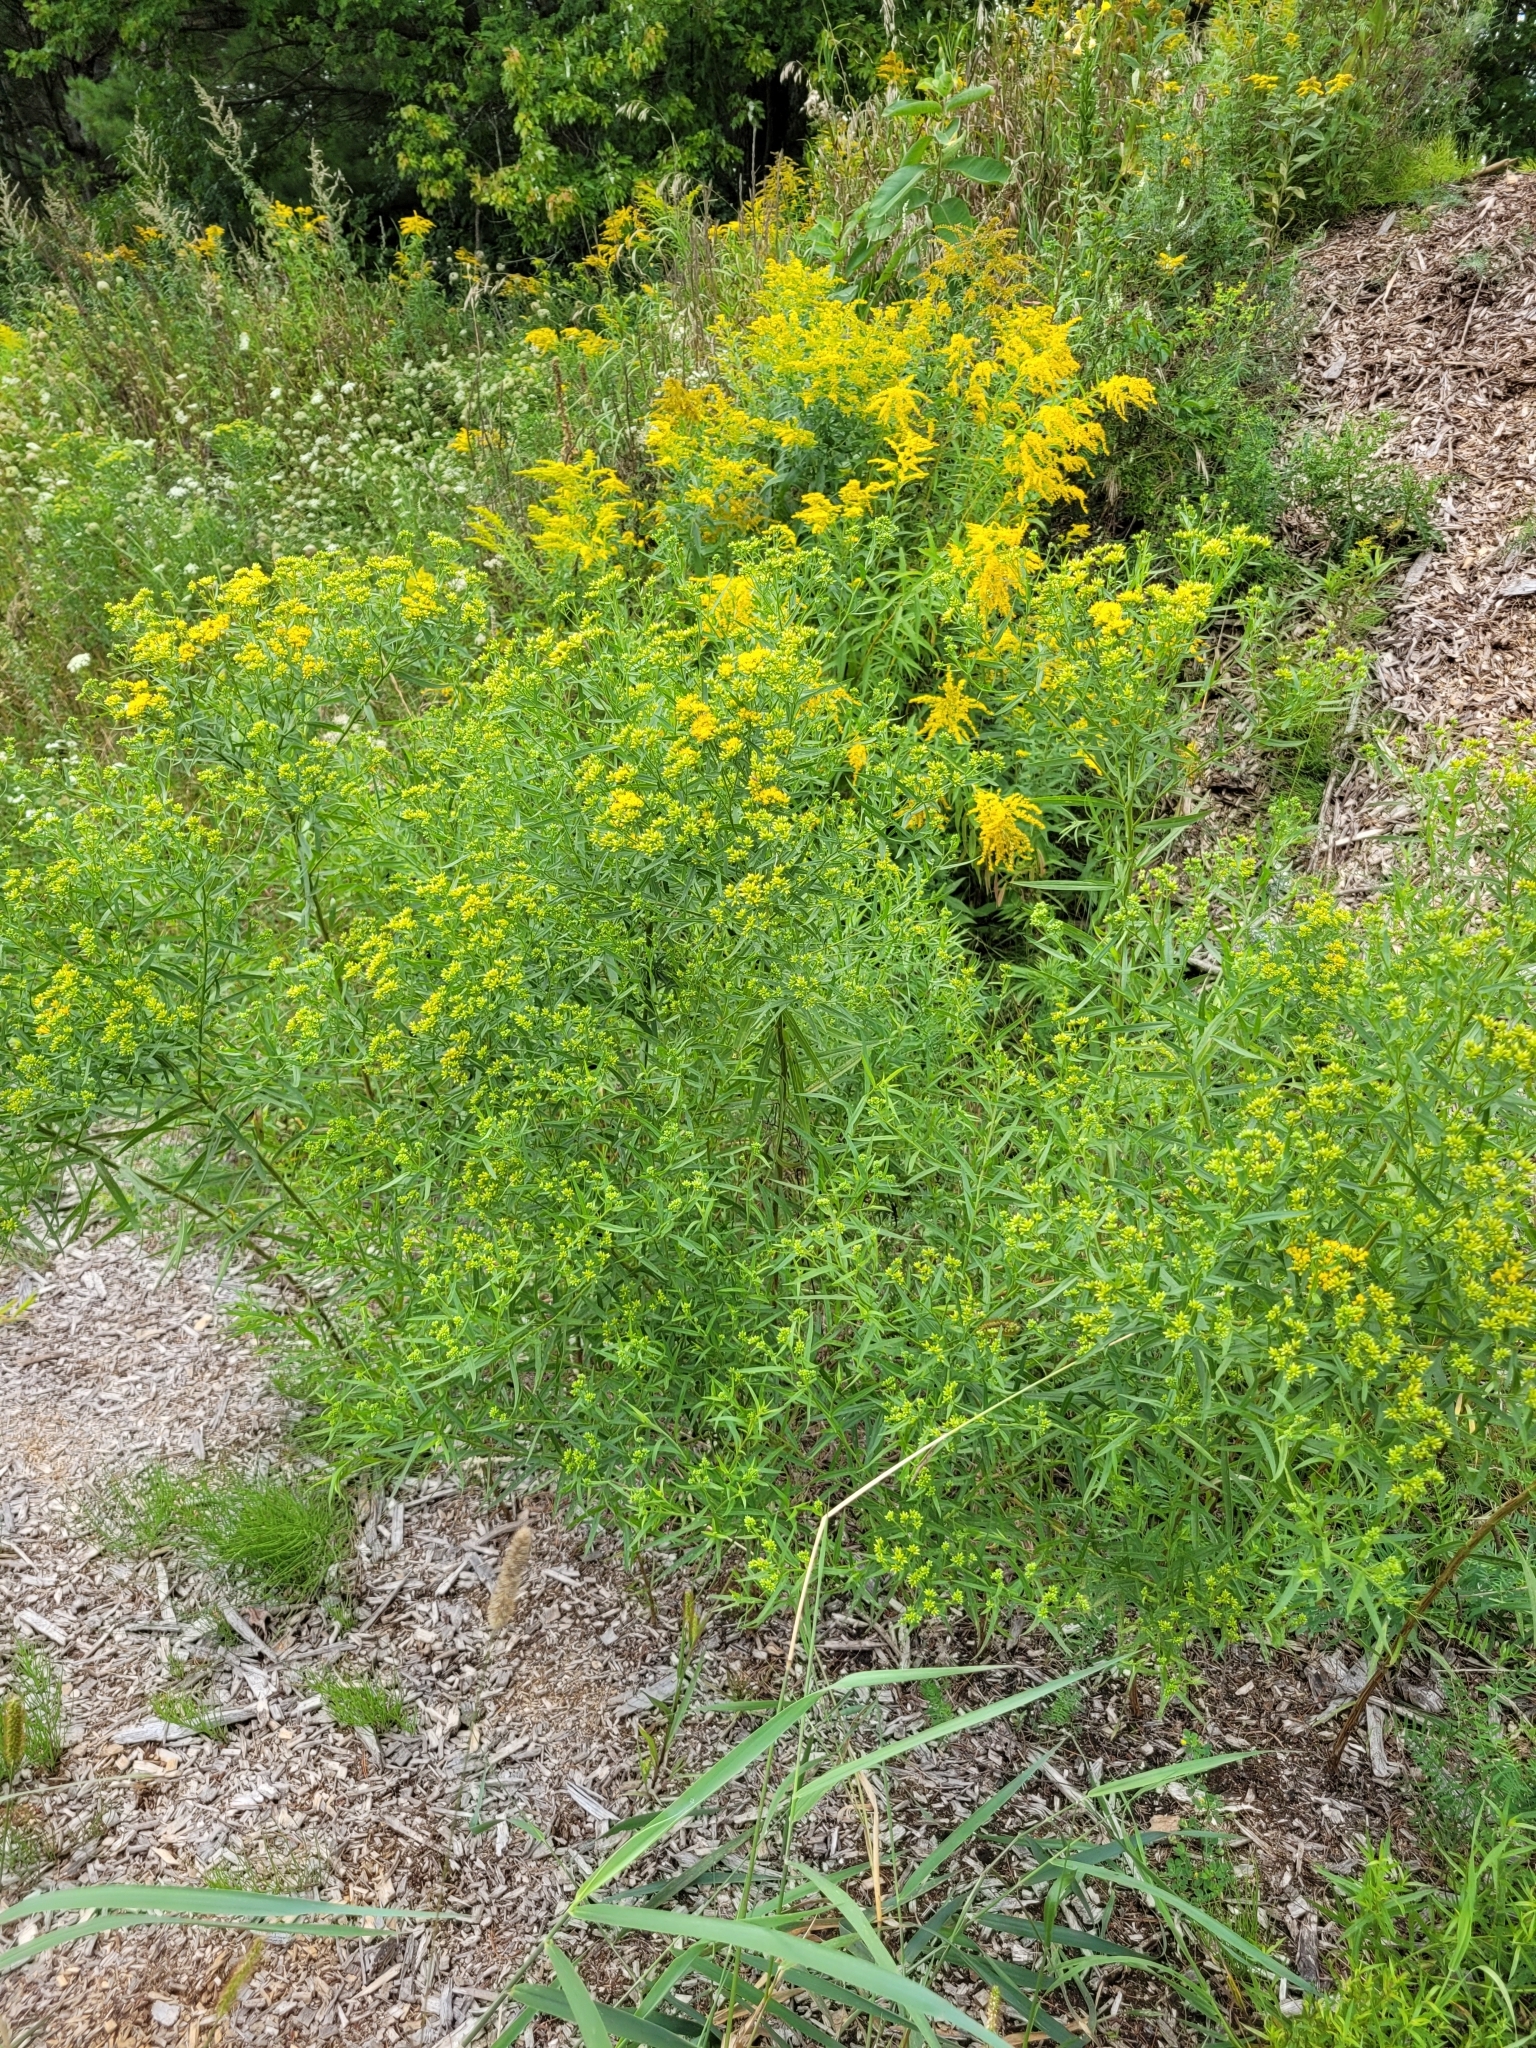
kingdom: Plantae
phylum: Tracheophyta
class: Magnoliopsida
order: Asterales
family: Asteraceae
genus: Euthamia
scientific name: Euthamia graminifolia
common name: Common goldentop
